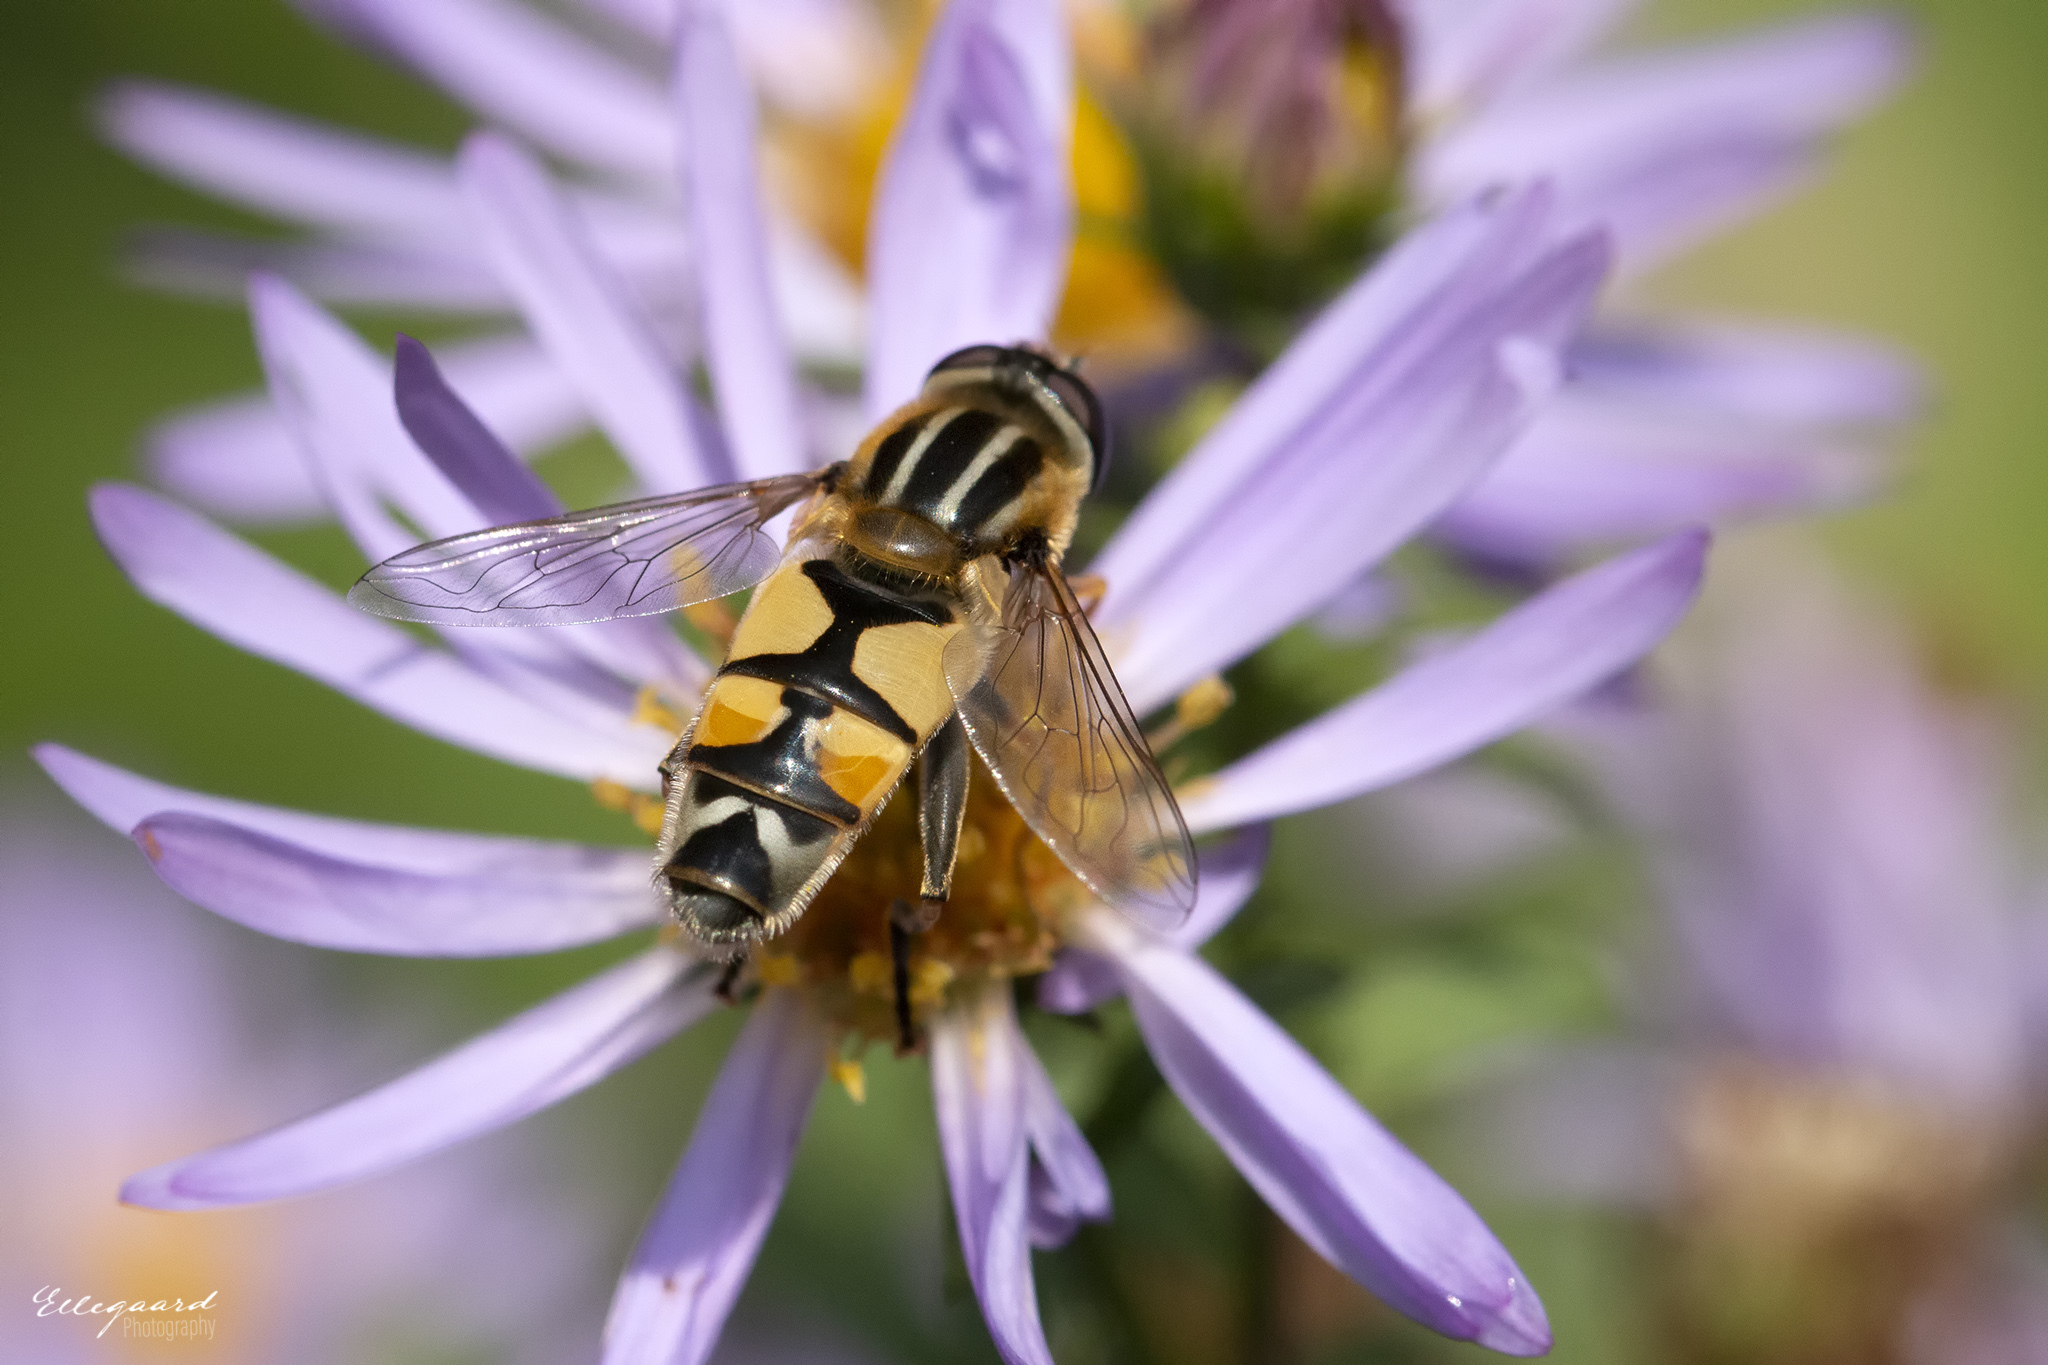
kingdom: Animalia
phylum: Arthropoda
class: Insecta
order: Diptera
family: Syrphidae
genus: Helophilus
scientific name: Helophilus trivittatus
